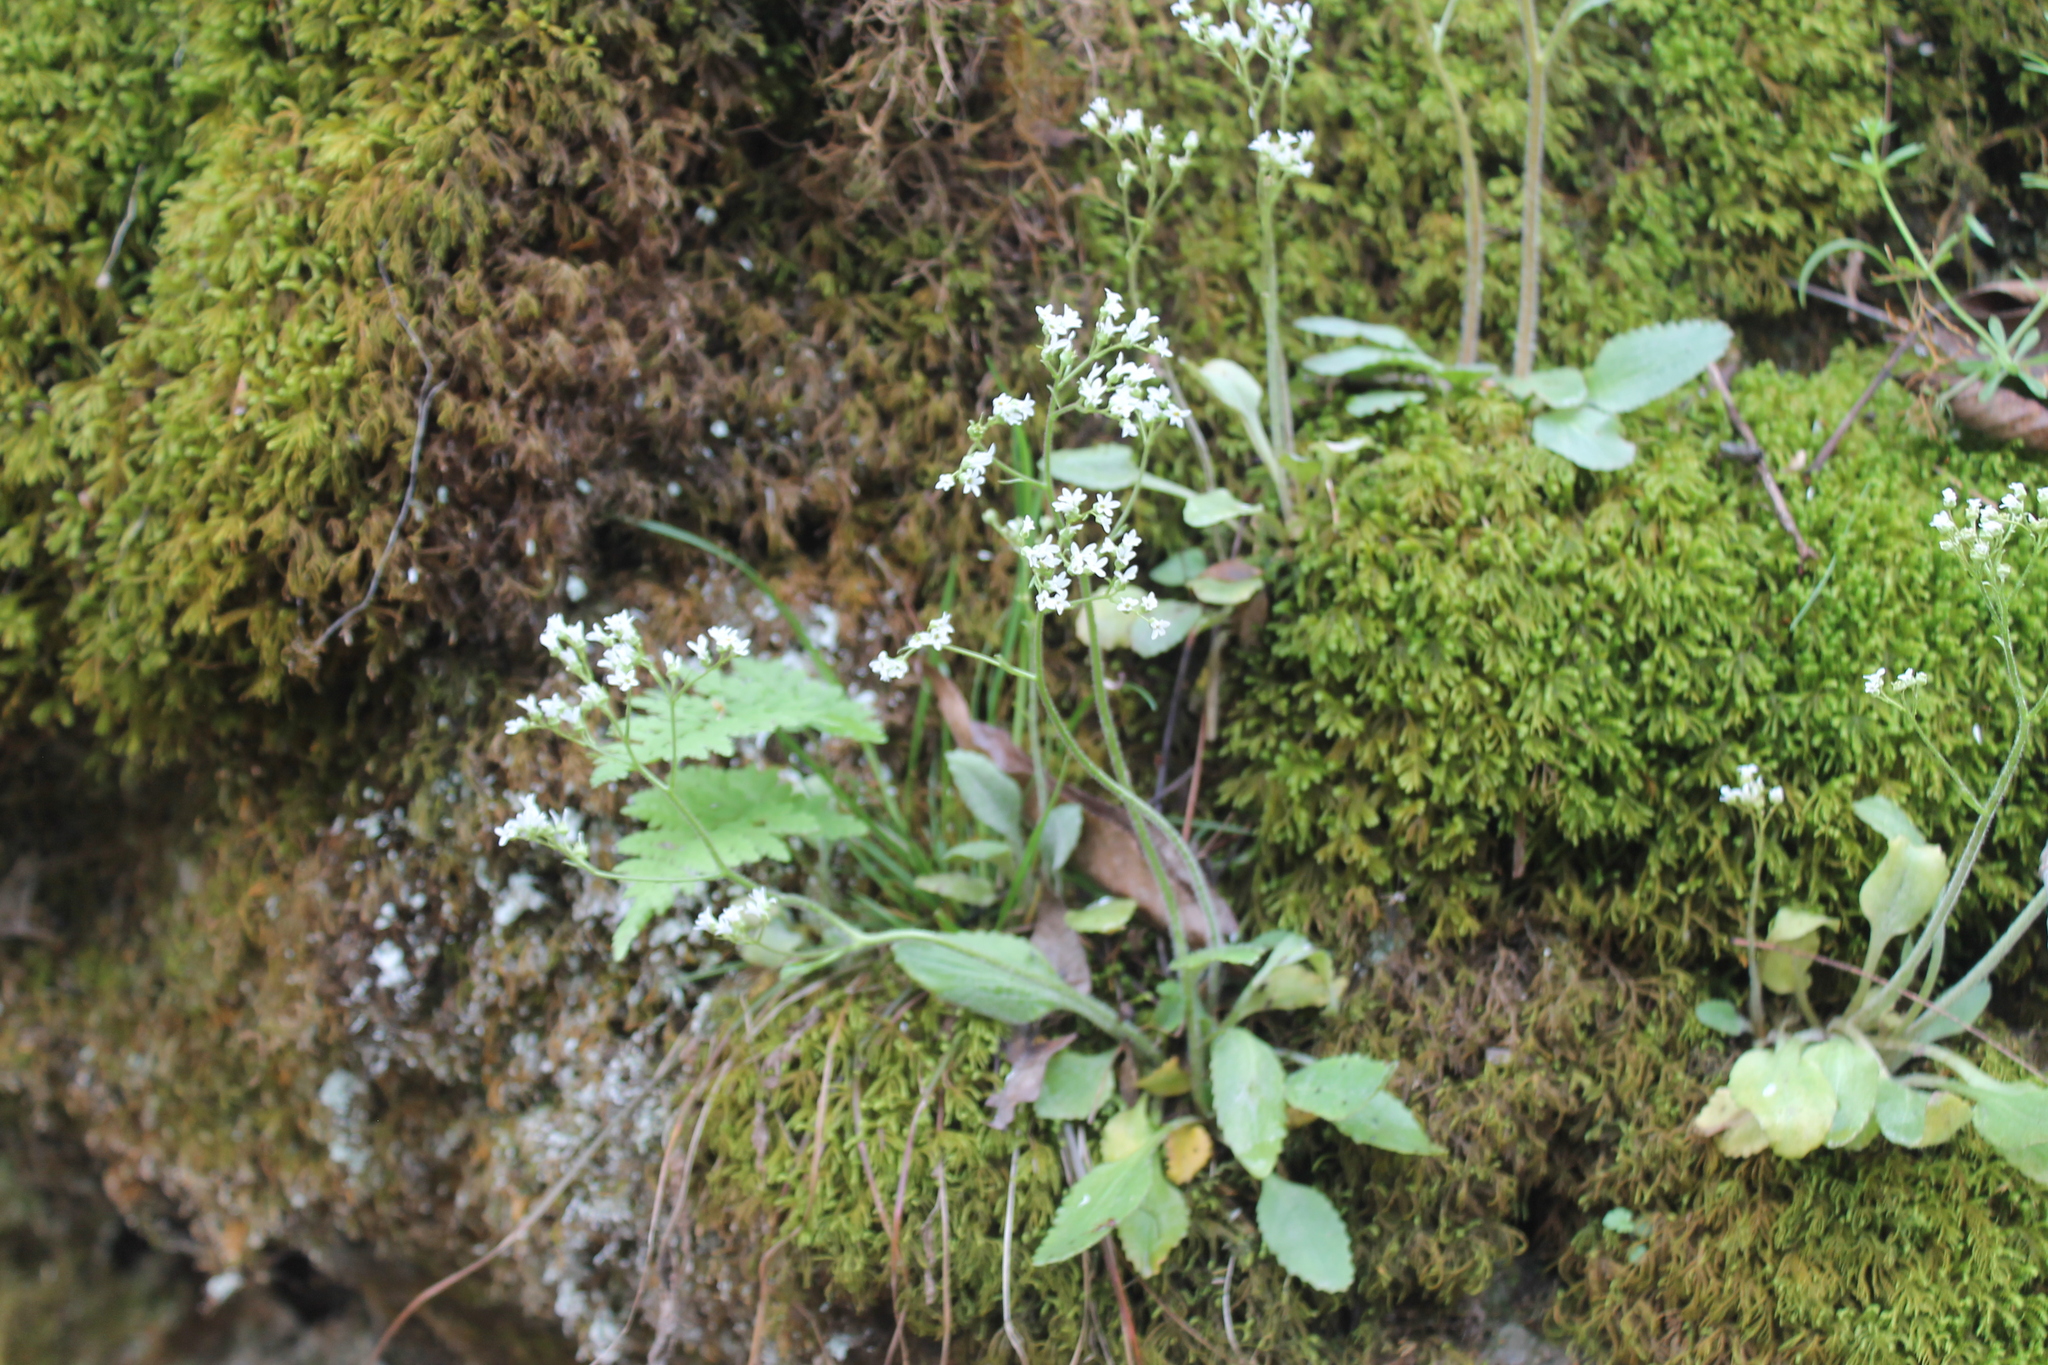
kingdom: Plantae
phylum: Tracheophyta
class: Magnoliopsida
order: Saxifragales
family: Saxifragaceae
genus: Micranthes
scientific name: Micranthes virginiensis
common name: Early saxifrage
